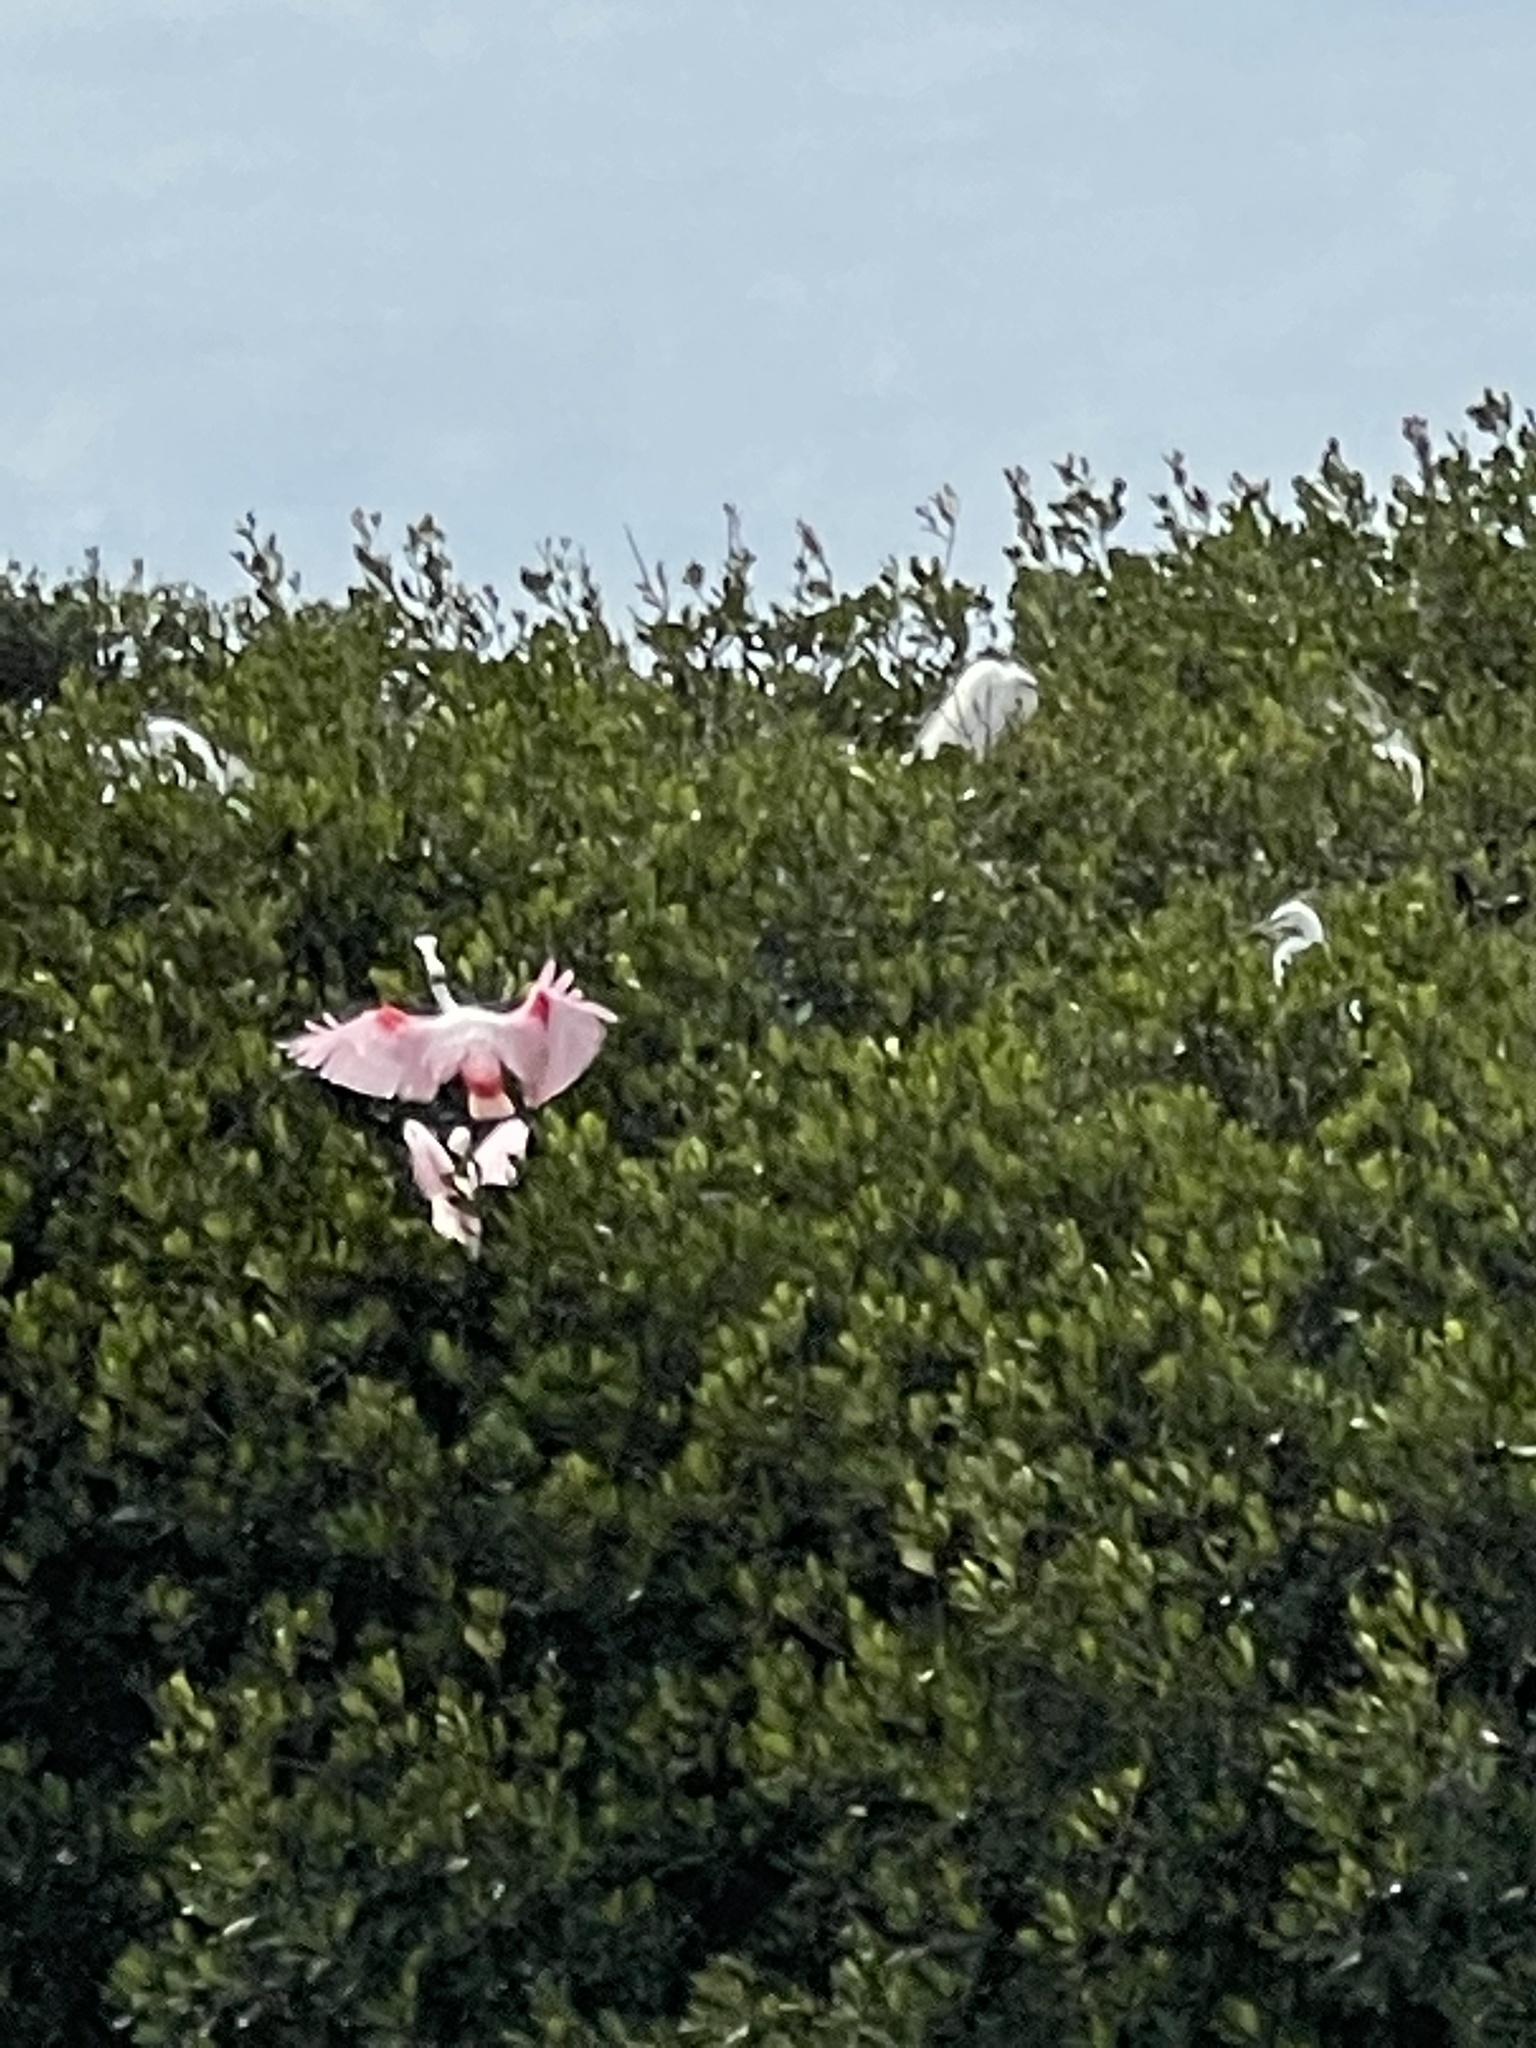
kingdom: Animalia
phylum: Chordata
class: Aves
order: Pelecaniformes
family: Threskiornithidae
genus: Platalea
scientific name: Platalea ajaja
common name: Roseate spoonbill
